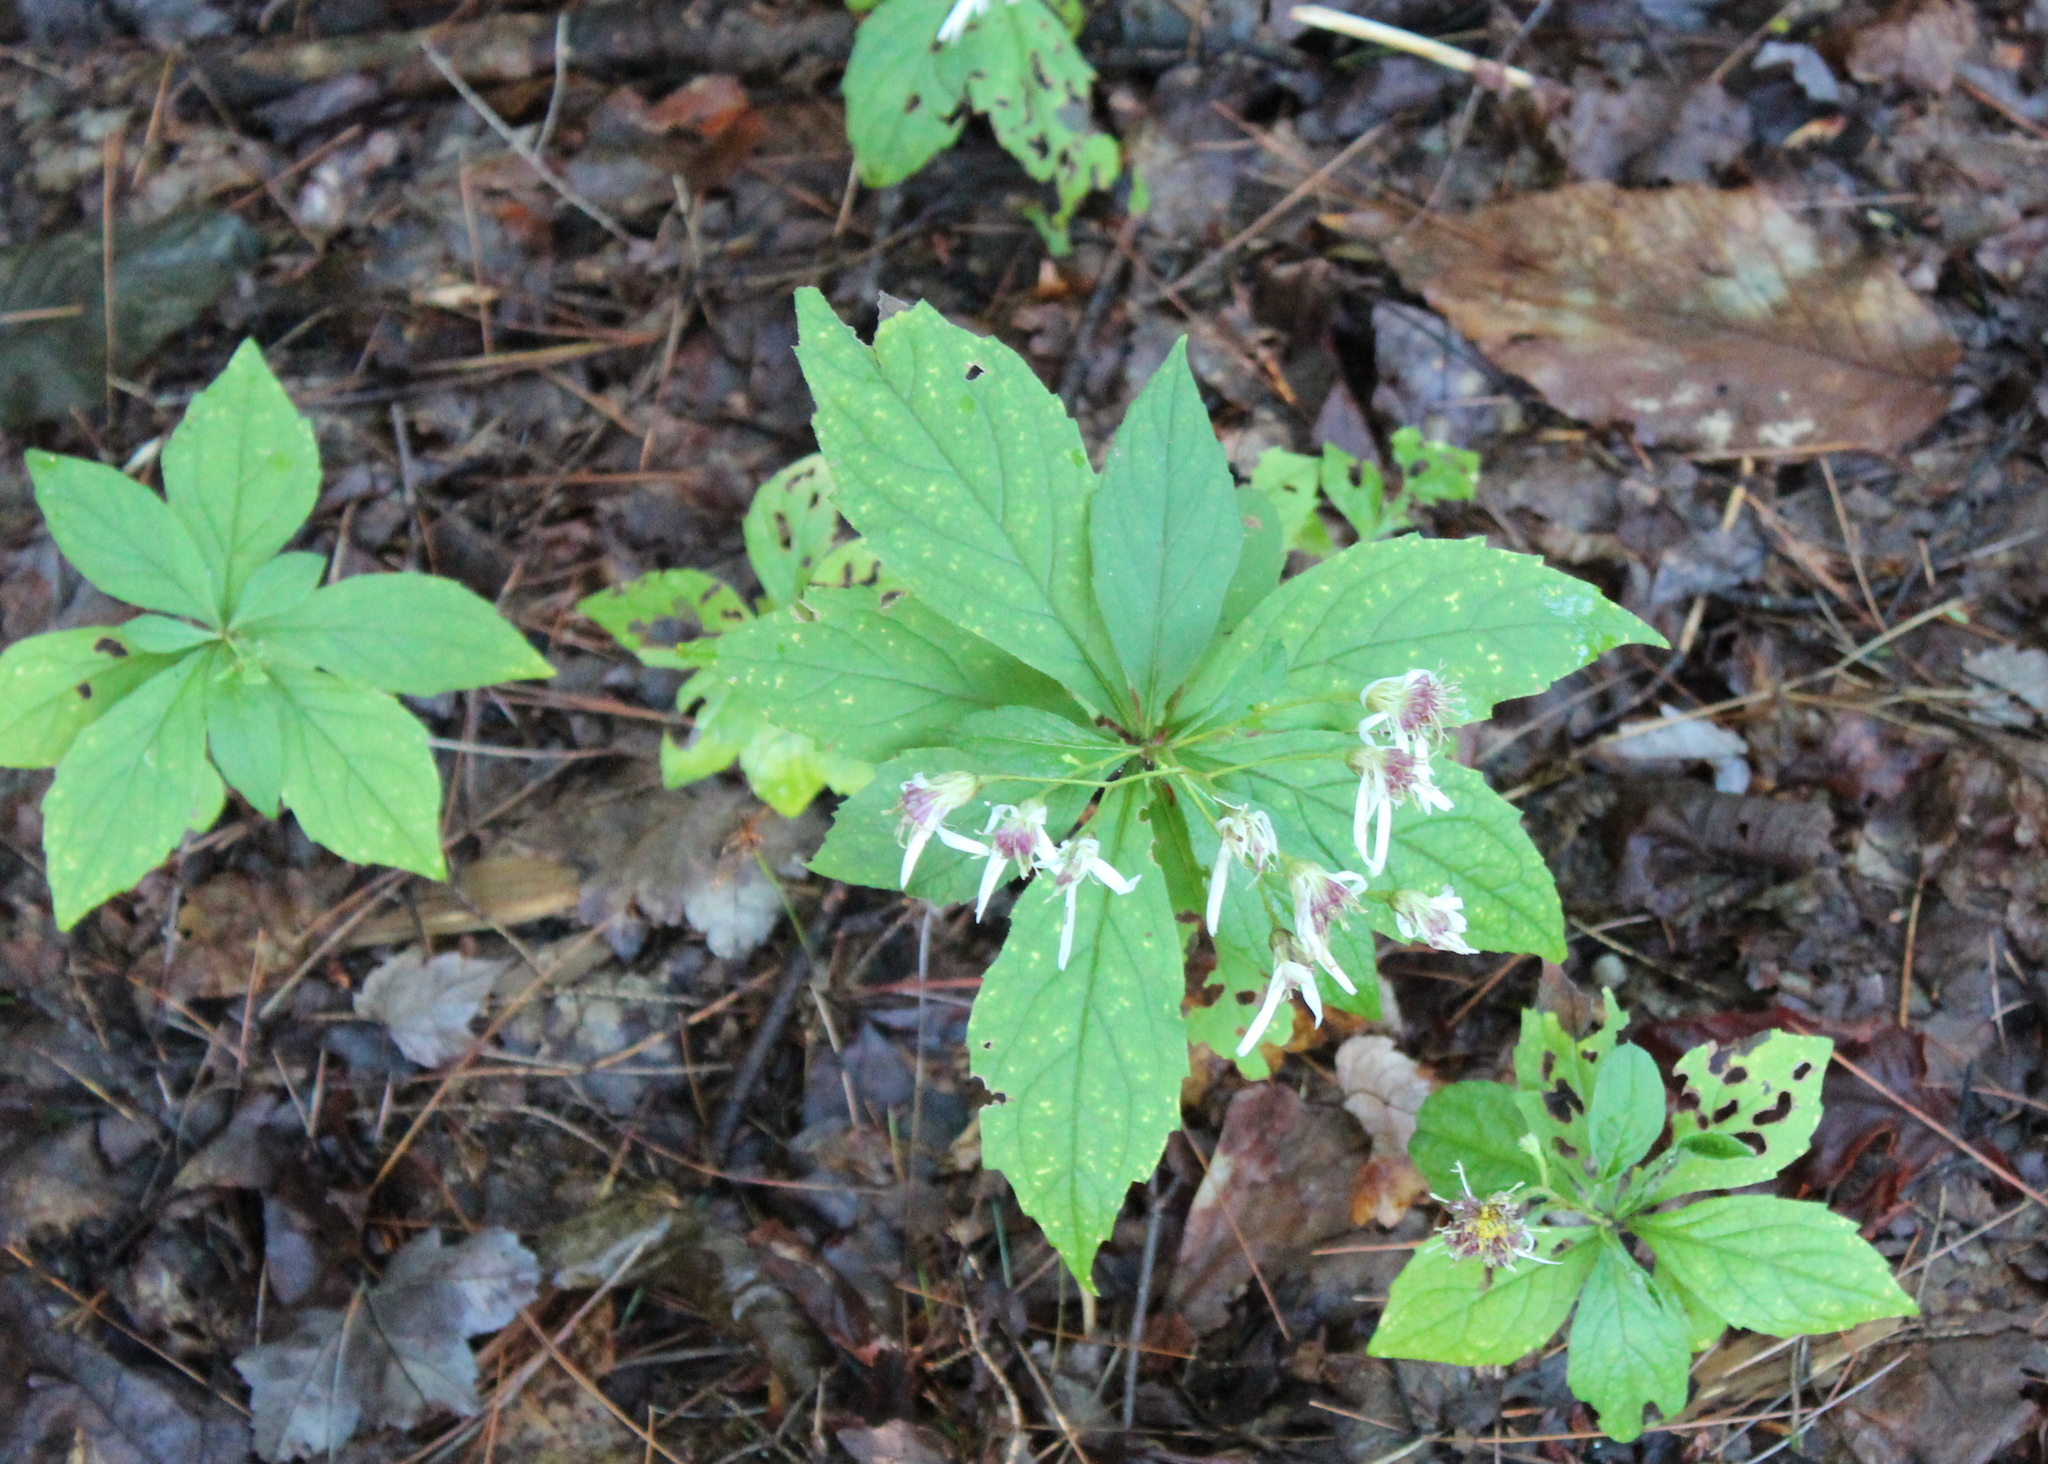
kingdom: Plantae
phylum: Tracheophyta
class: Magnoliopsida
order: Asterales
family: Asteraceae
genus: Oclemena
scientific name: Oclemena acuminata
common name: Mountain aster
